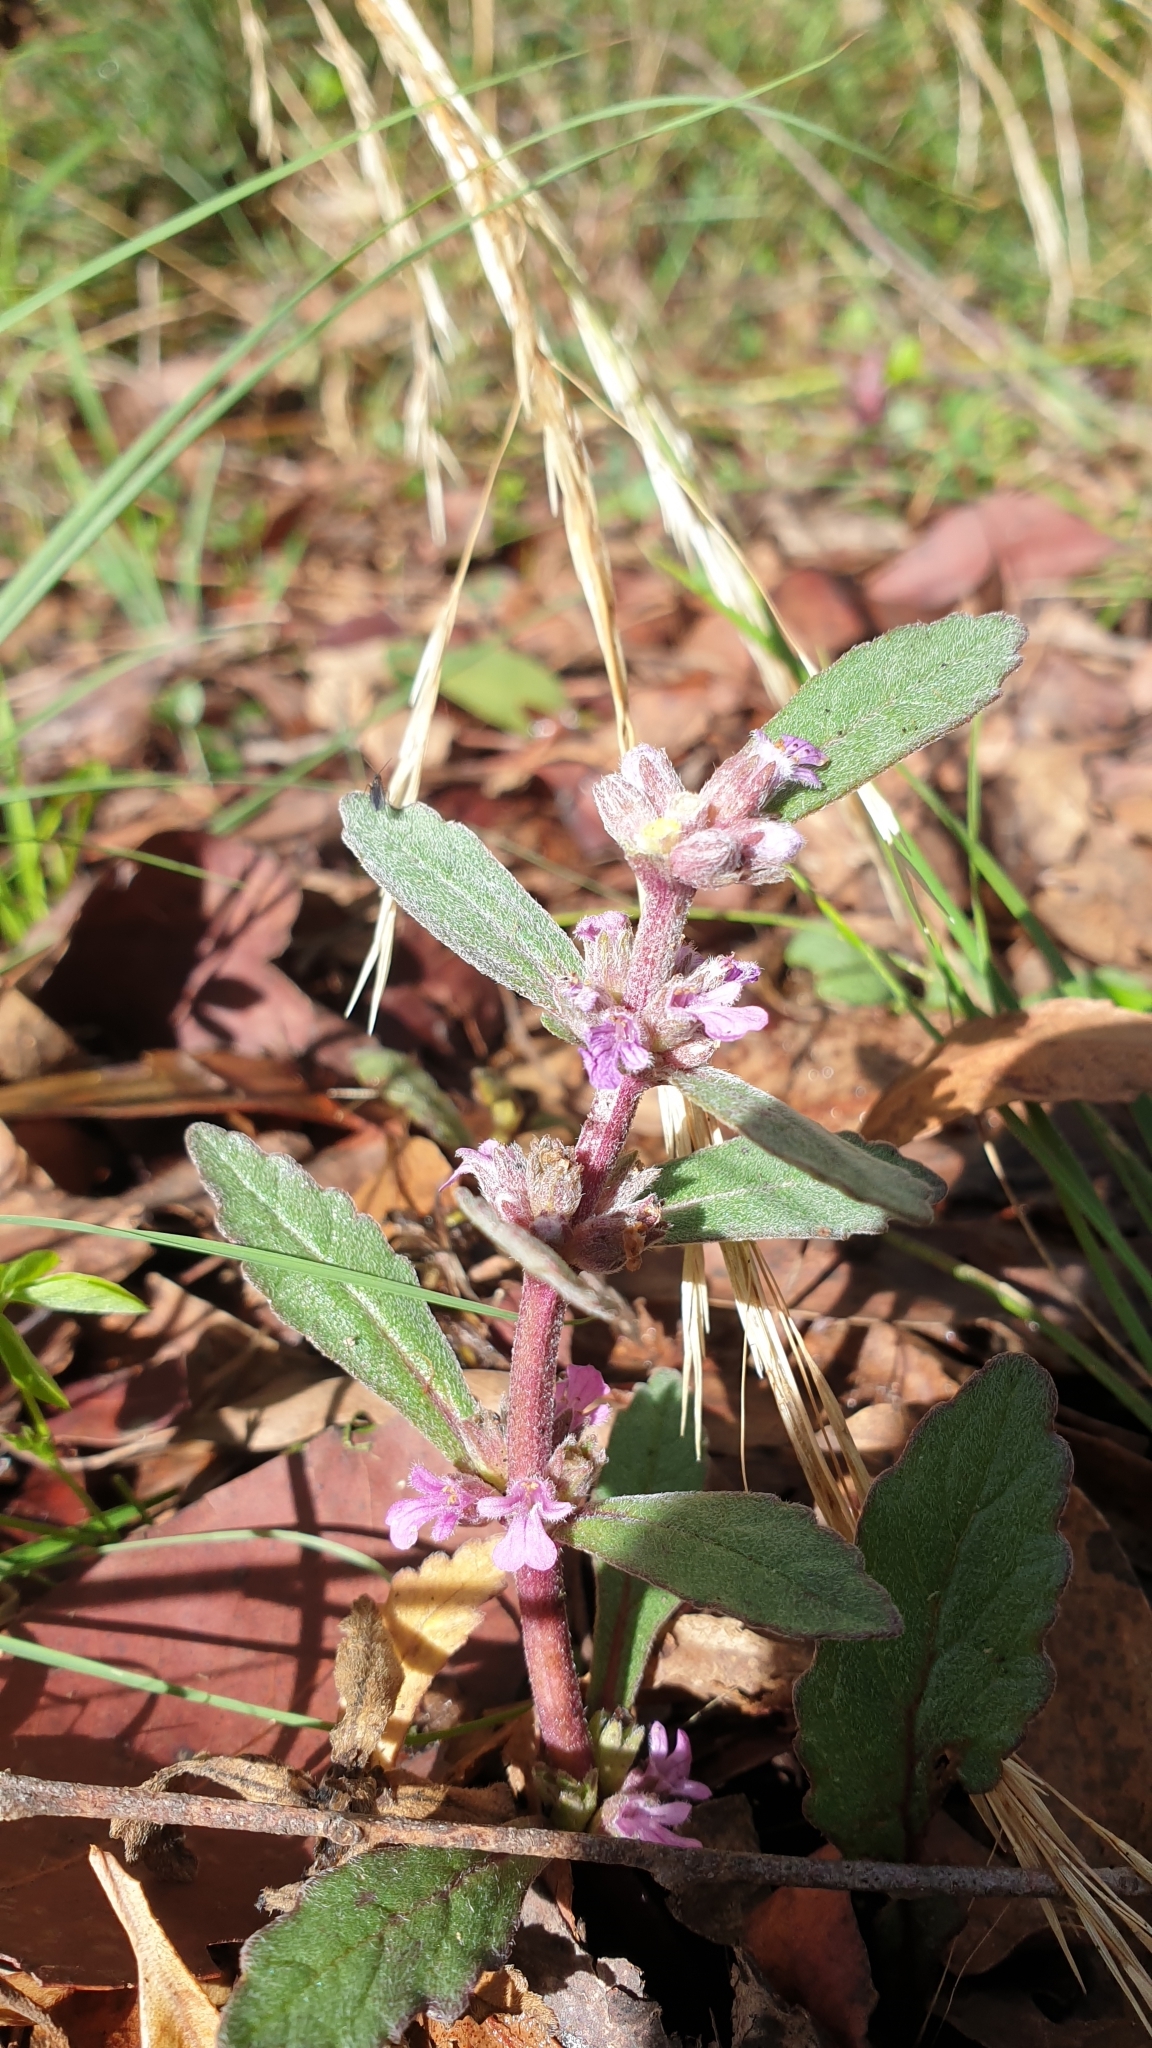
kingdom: Plantae
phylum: Tracheophyta
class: Magnoliopsida
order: Lamiales
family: Lamiaceae
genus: Ajuga
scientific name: Ajuga australis
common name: Australian bugle
